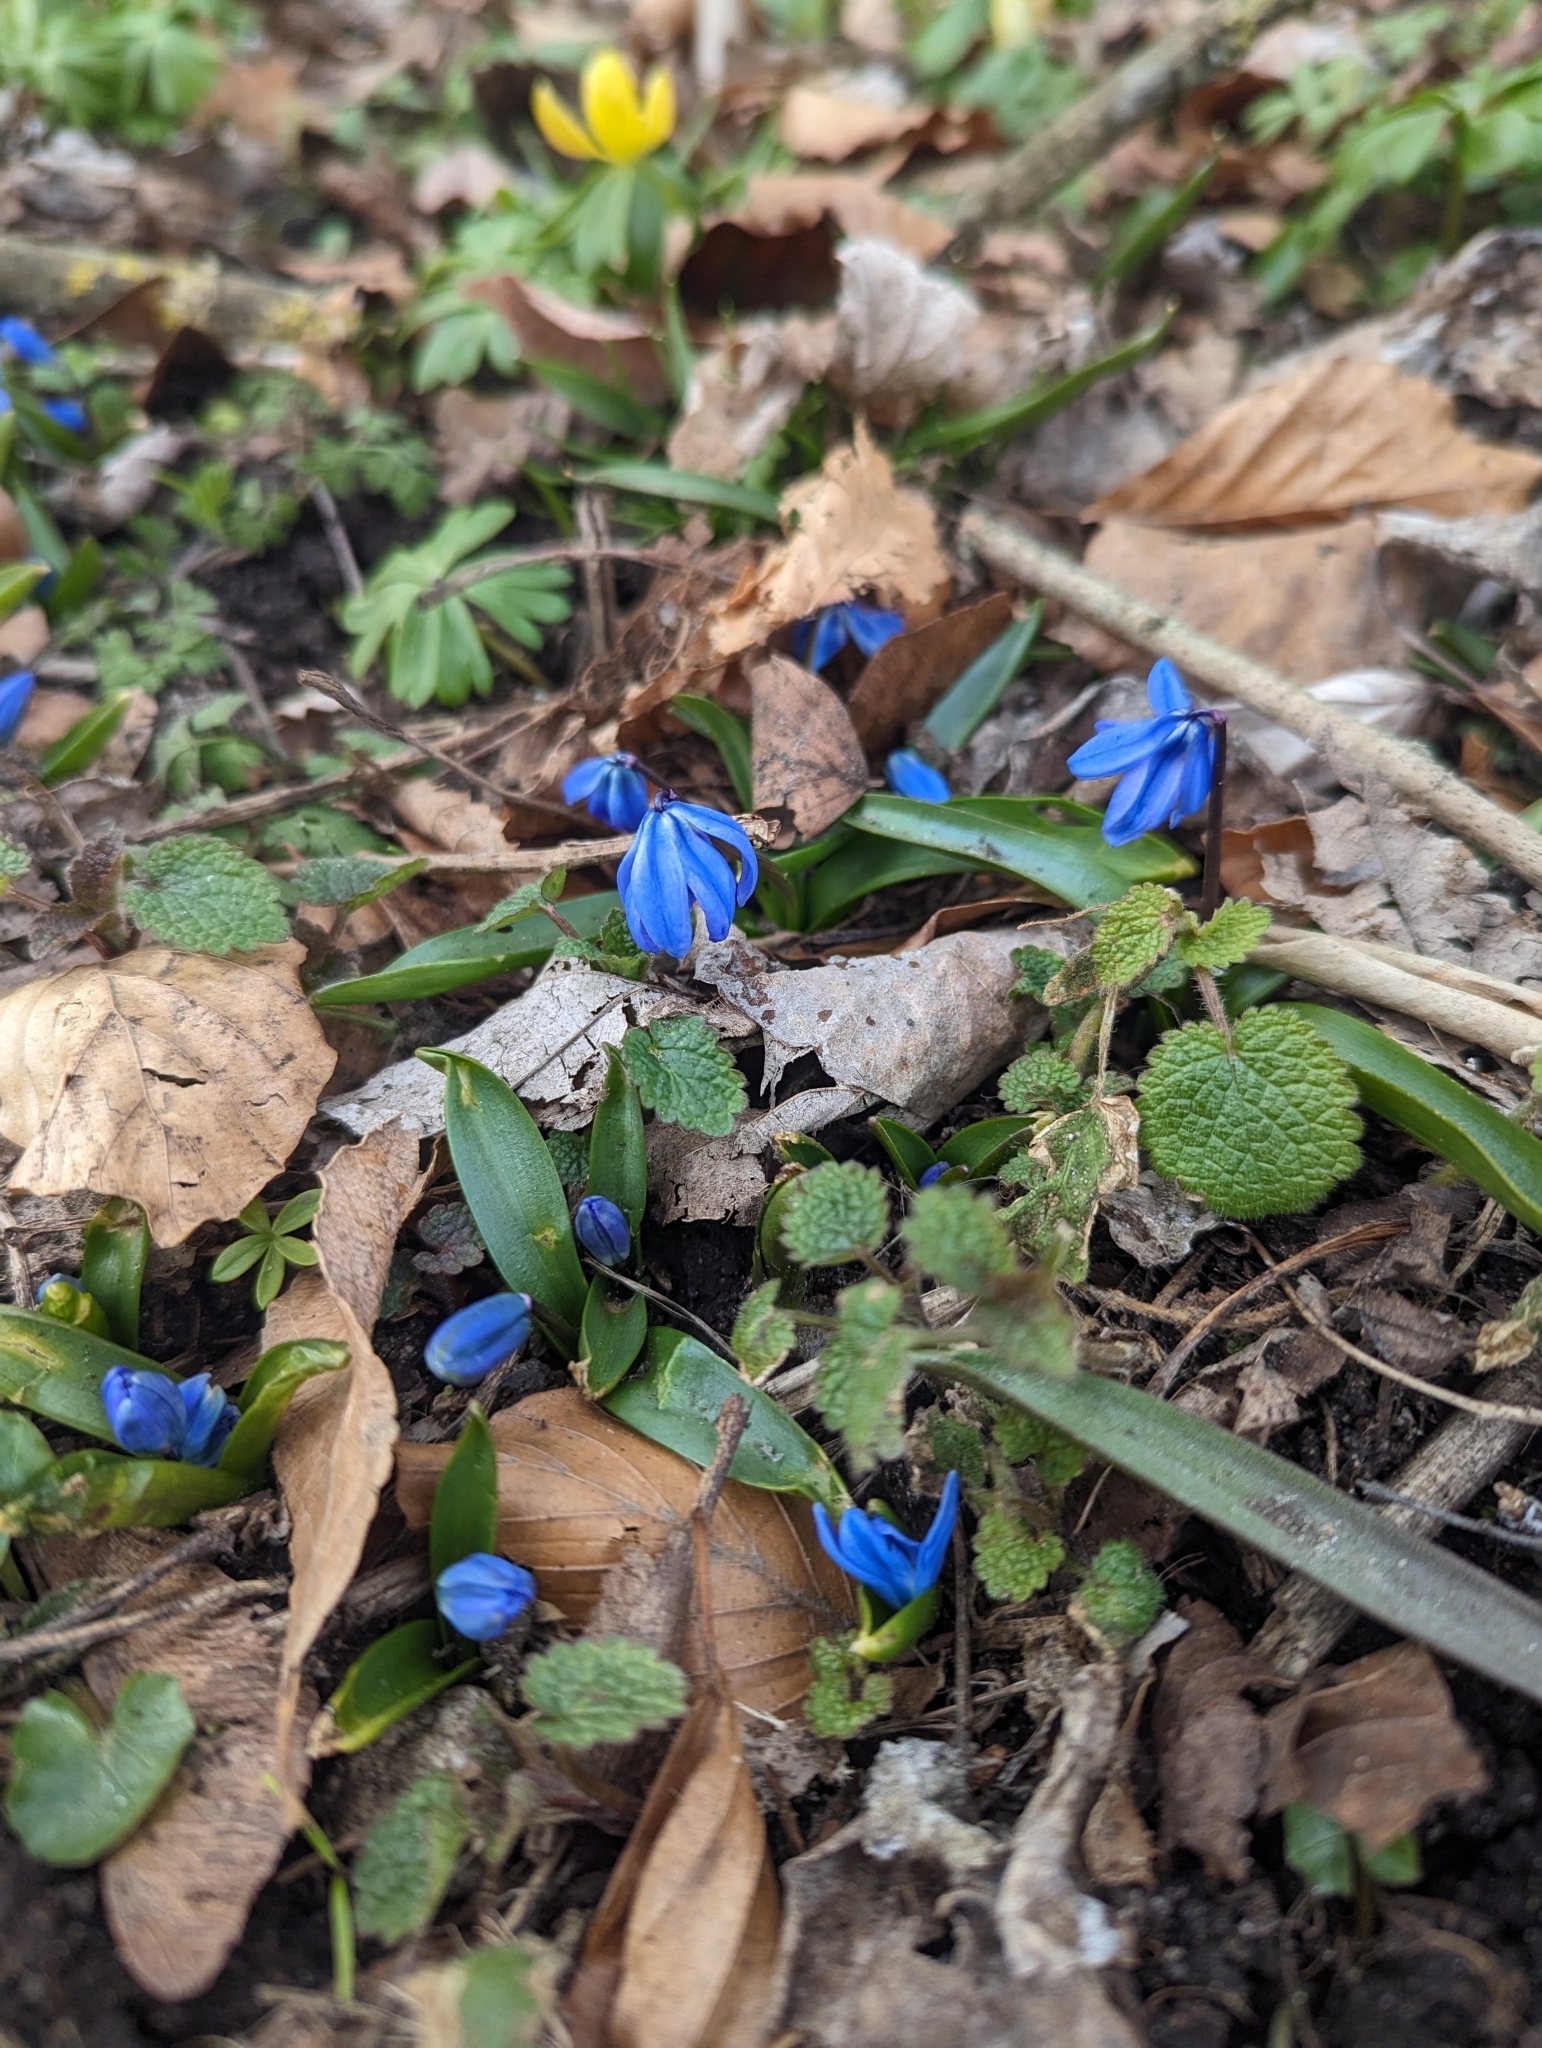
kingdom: Plantae
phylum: Tracheophyta
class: Liliopsida
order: Asparagales
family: Asparagaceae
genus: Scilla
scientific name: Scilla siberica
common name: Siberian squill
